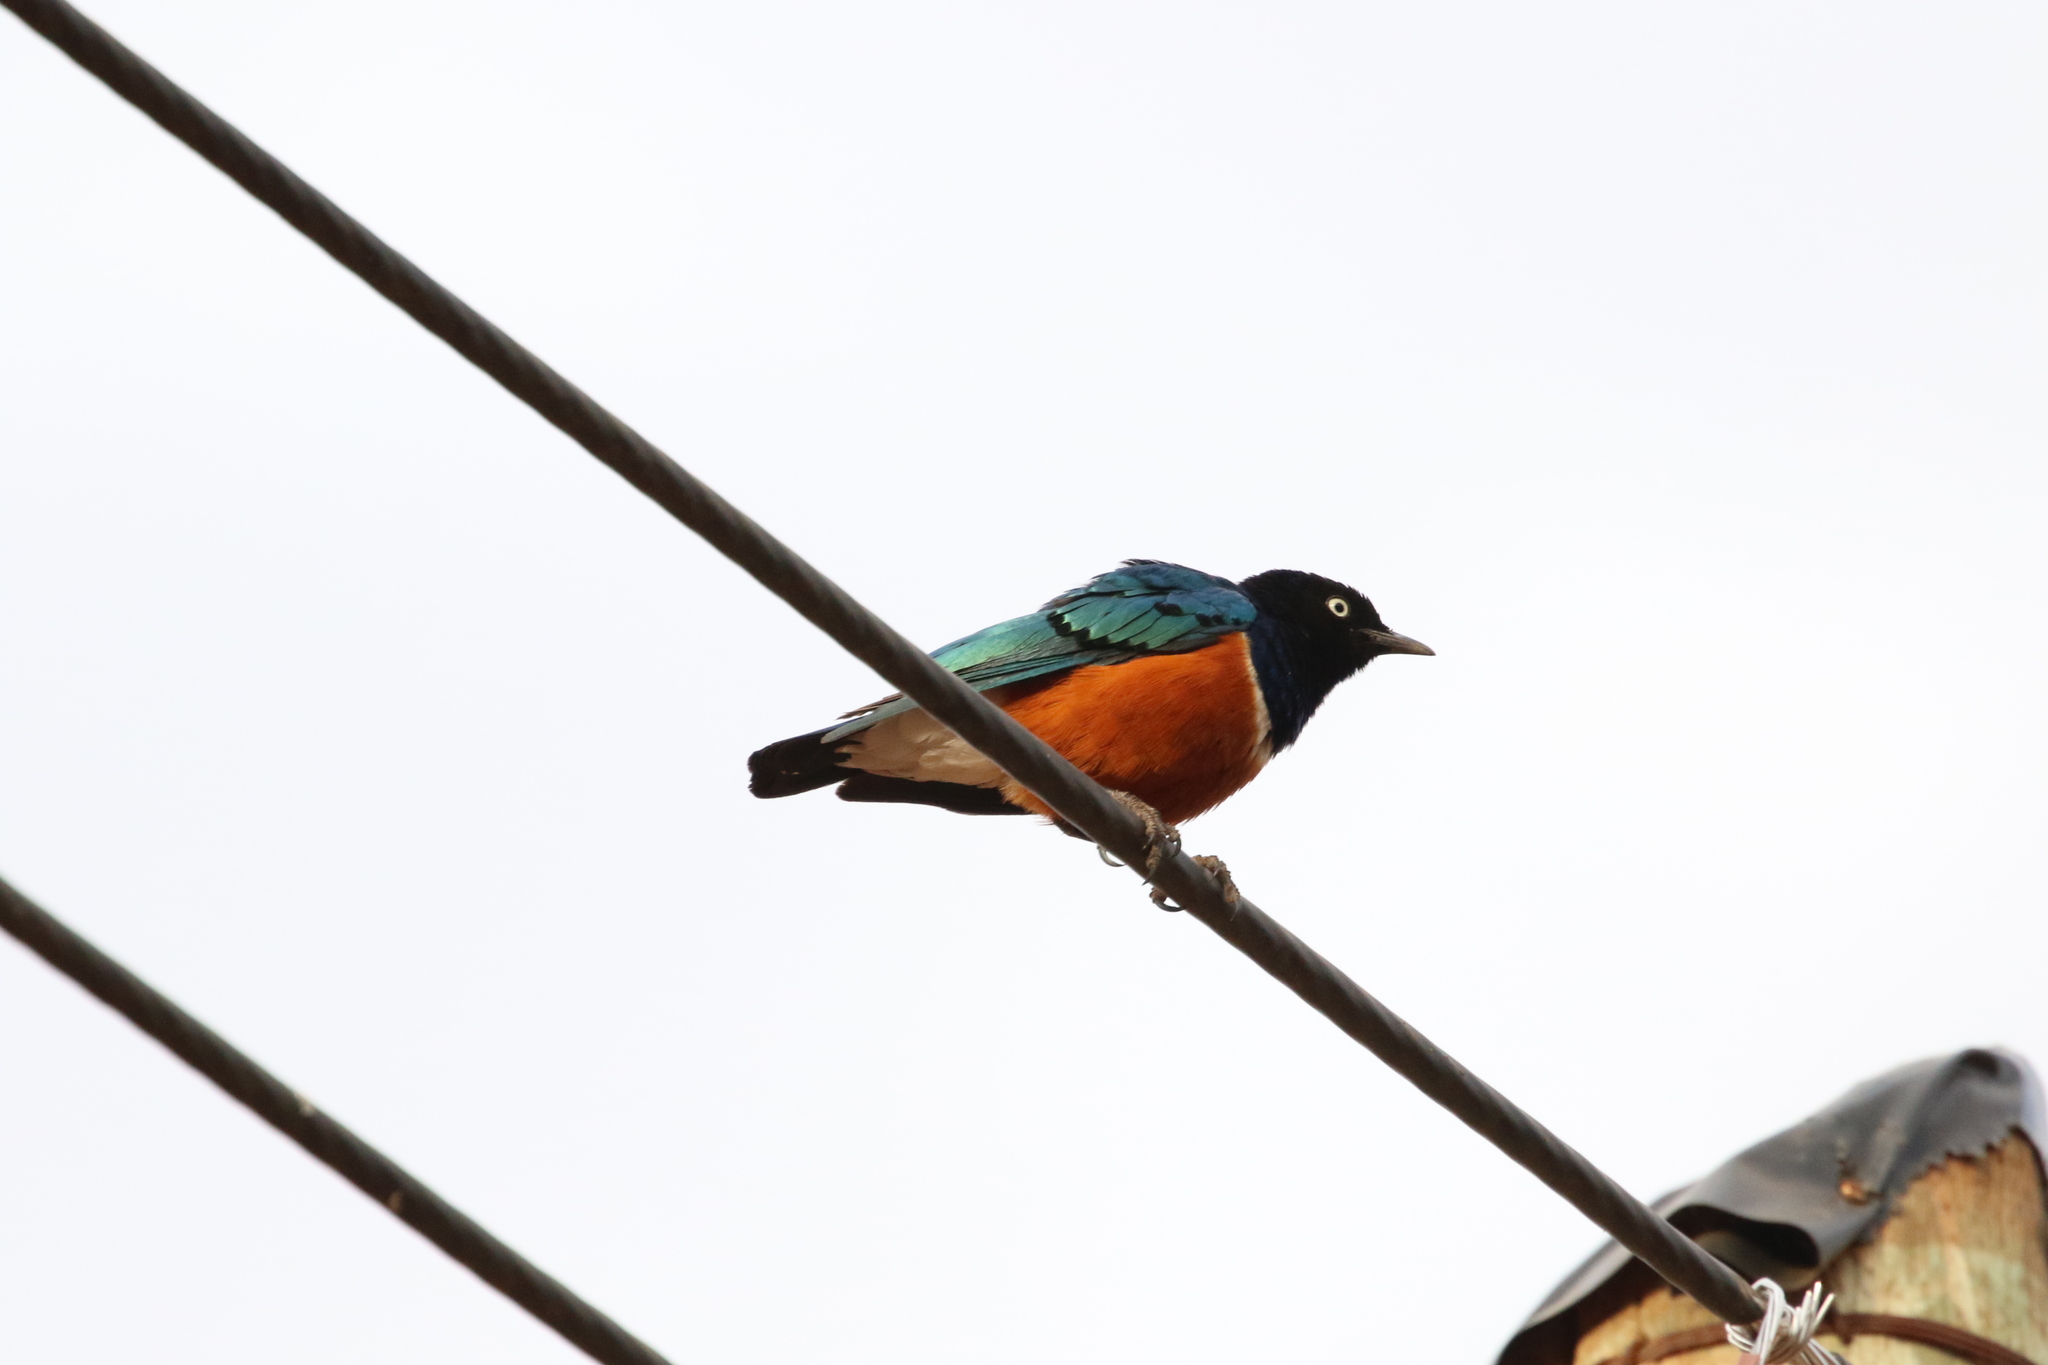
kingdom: Animalia
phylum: Chordata
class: Aves
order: Passeriformes
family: Sturnidae
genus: Lamprotornis
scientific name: Lamprotornis superbus
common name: Superb starling
